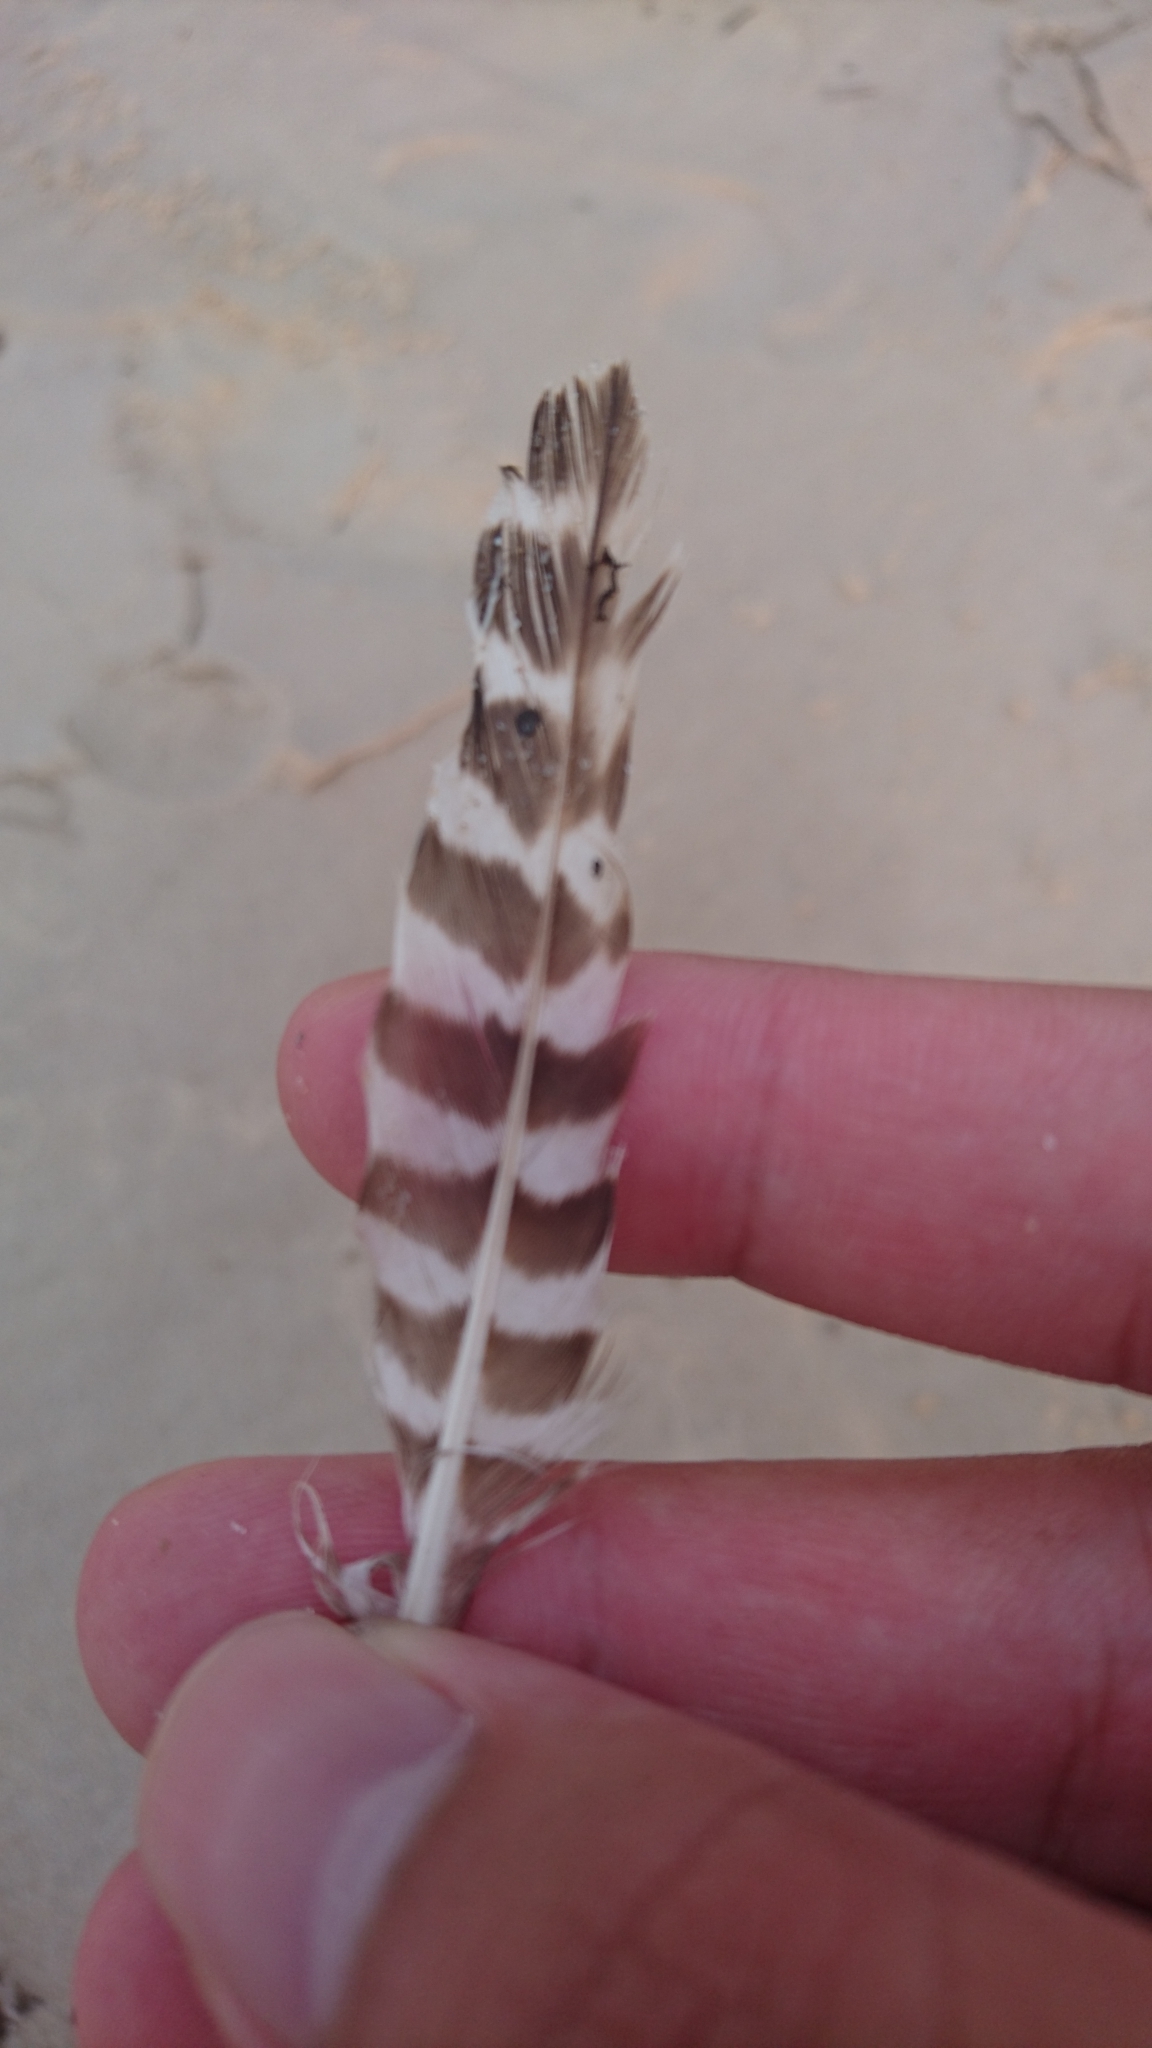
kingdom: Animalia
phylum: Chordata
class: Aves
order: Charadriiformes
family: Scolopacidae
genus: Limosa
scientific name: Limosa lapponica
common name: Bar-tailed godwit
